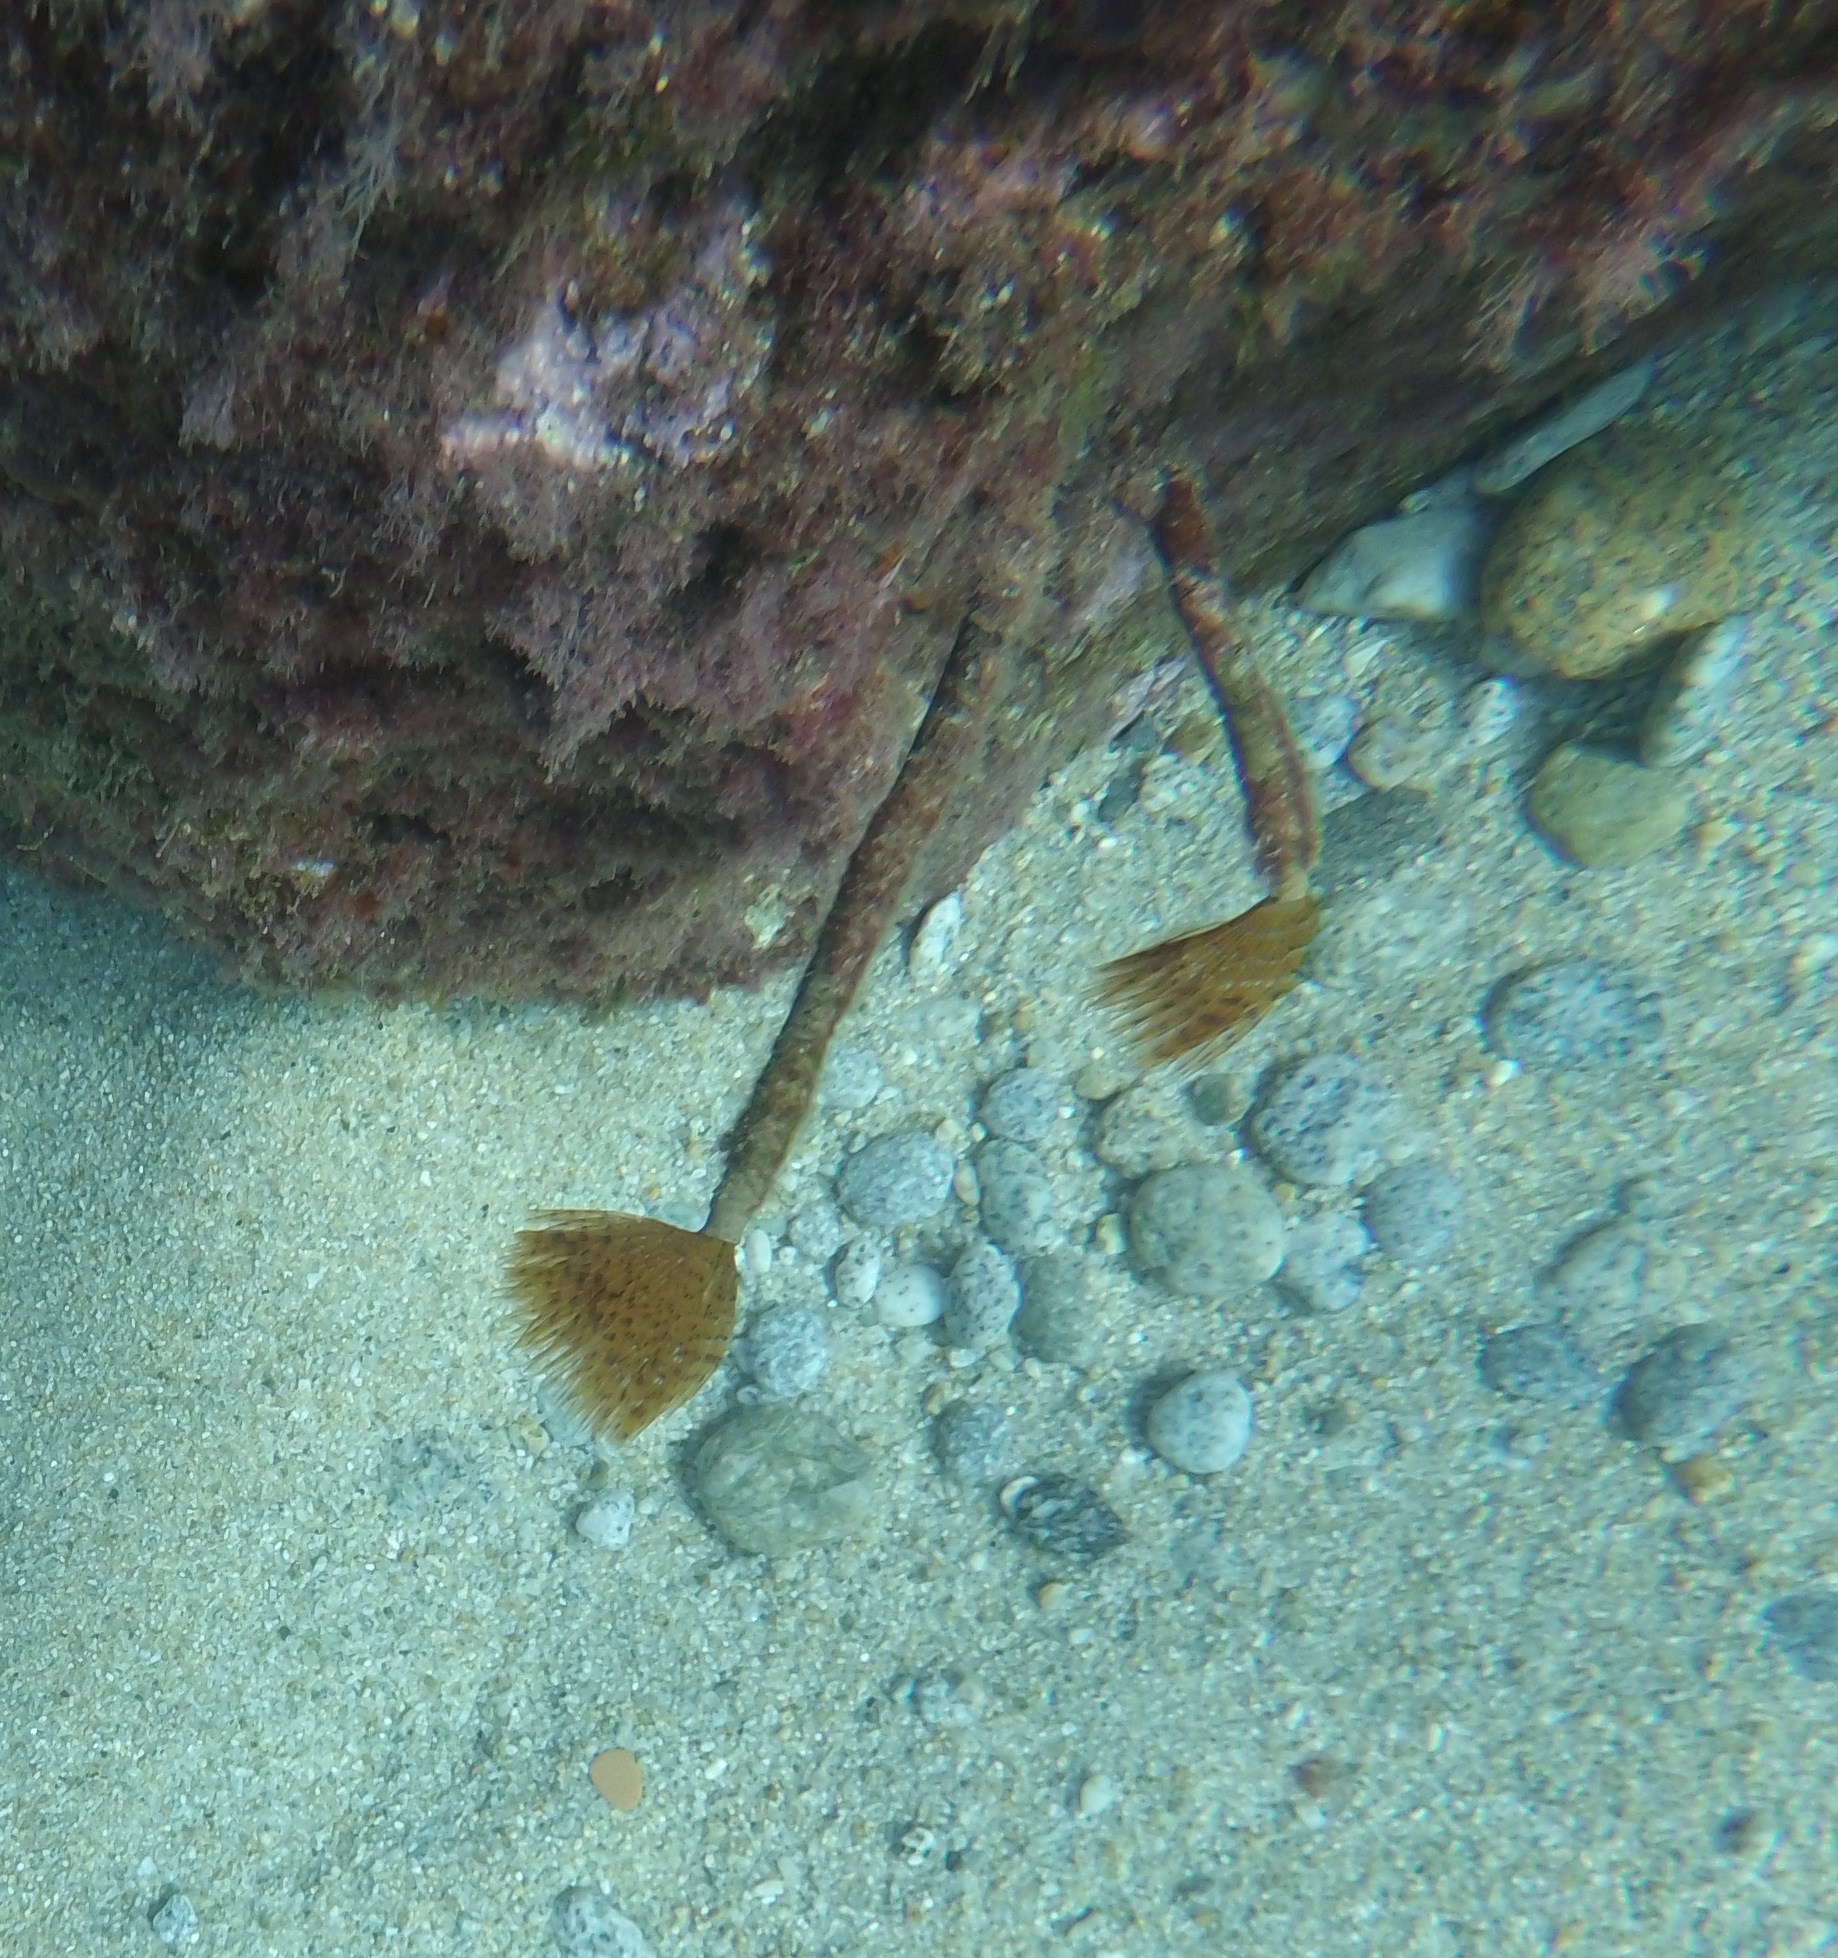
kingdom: Animalia
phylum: Annelida
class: Polychaeta
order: Sabellida
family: Sabellidae
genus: Sabella
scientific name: Sabella spallanzanii
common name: Feather duster worm
